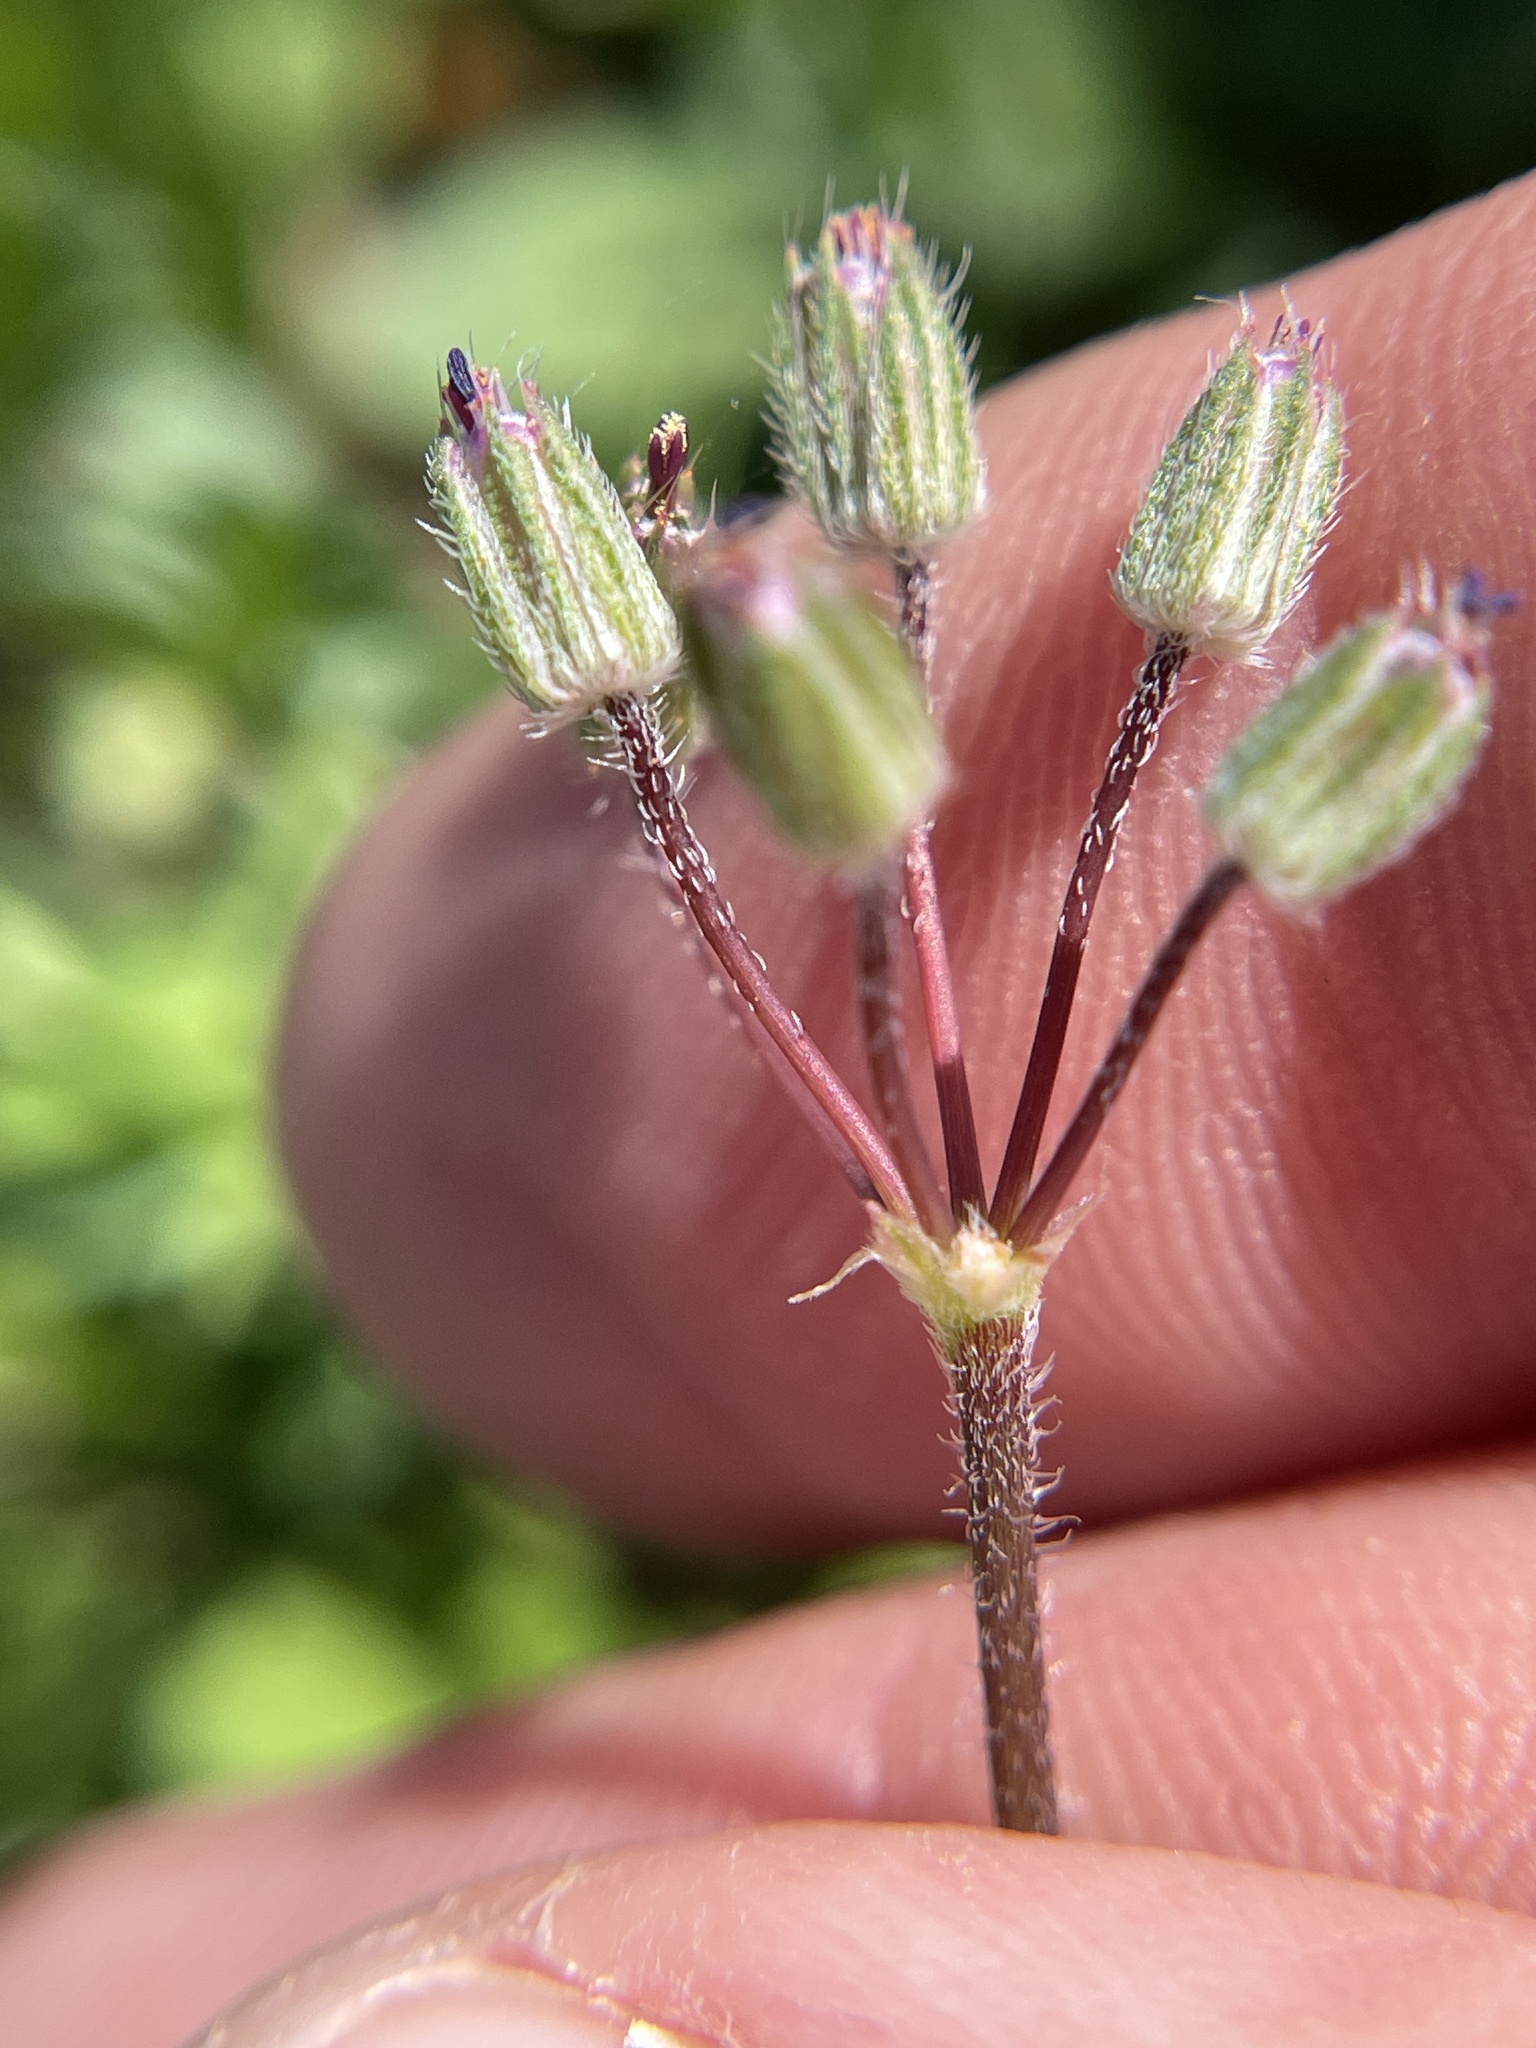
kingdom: Plantae
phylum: Tracheophyta
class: Magnoliopsida
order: Geraniales
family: Geraniaceae
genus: Erodium
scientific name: Erodium cicutarium
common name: Common stork's-bill
